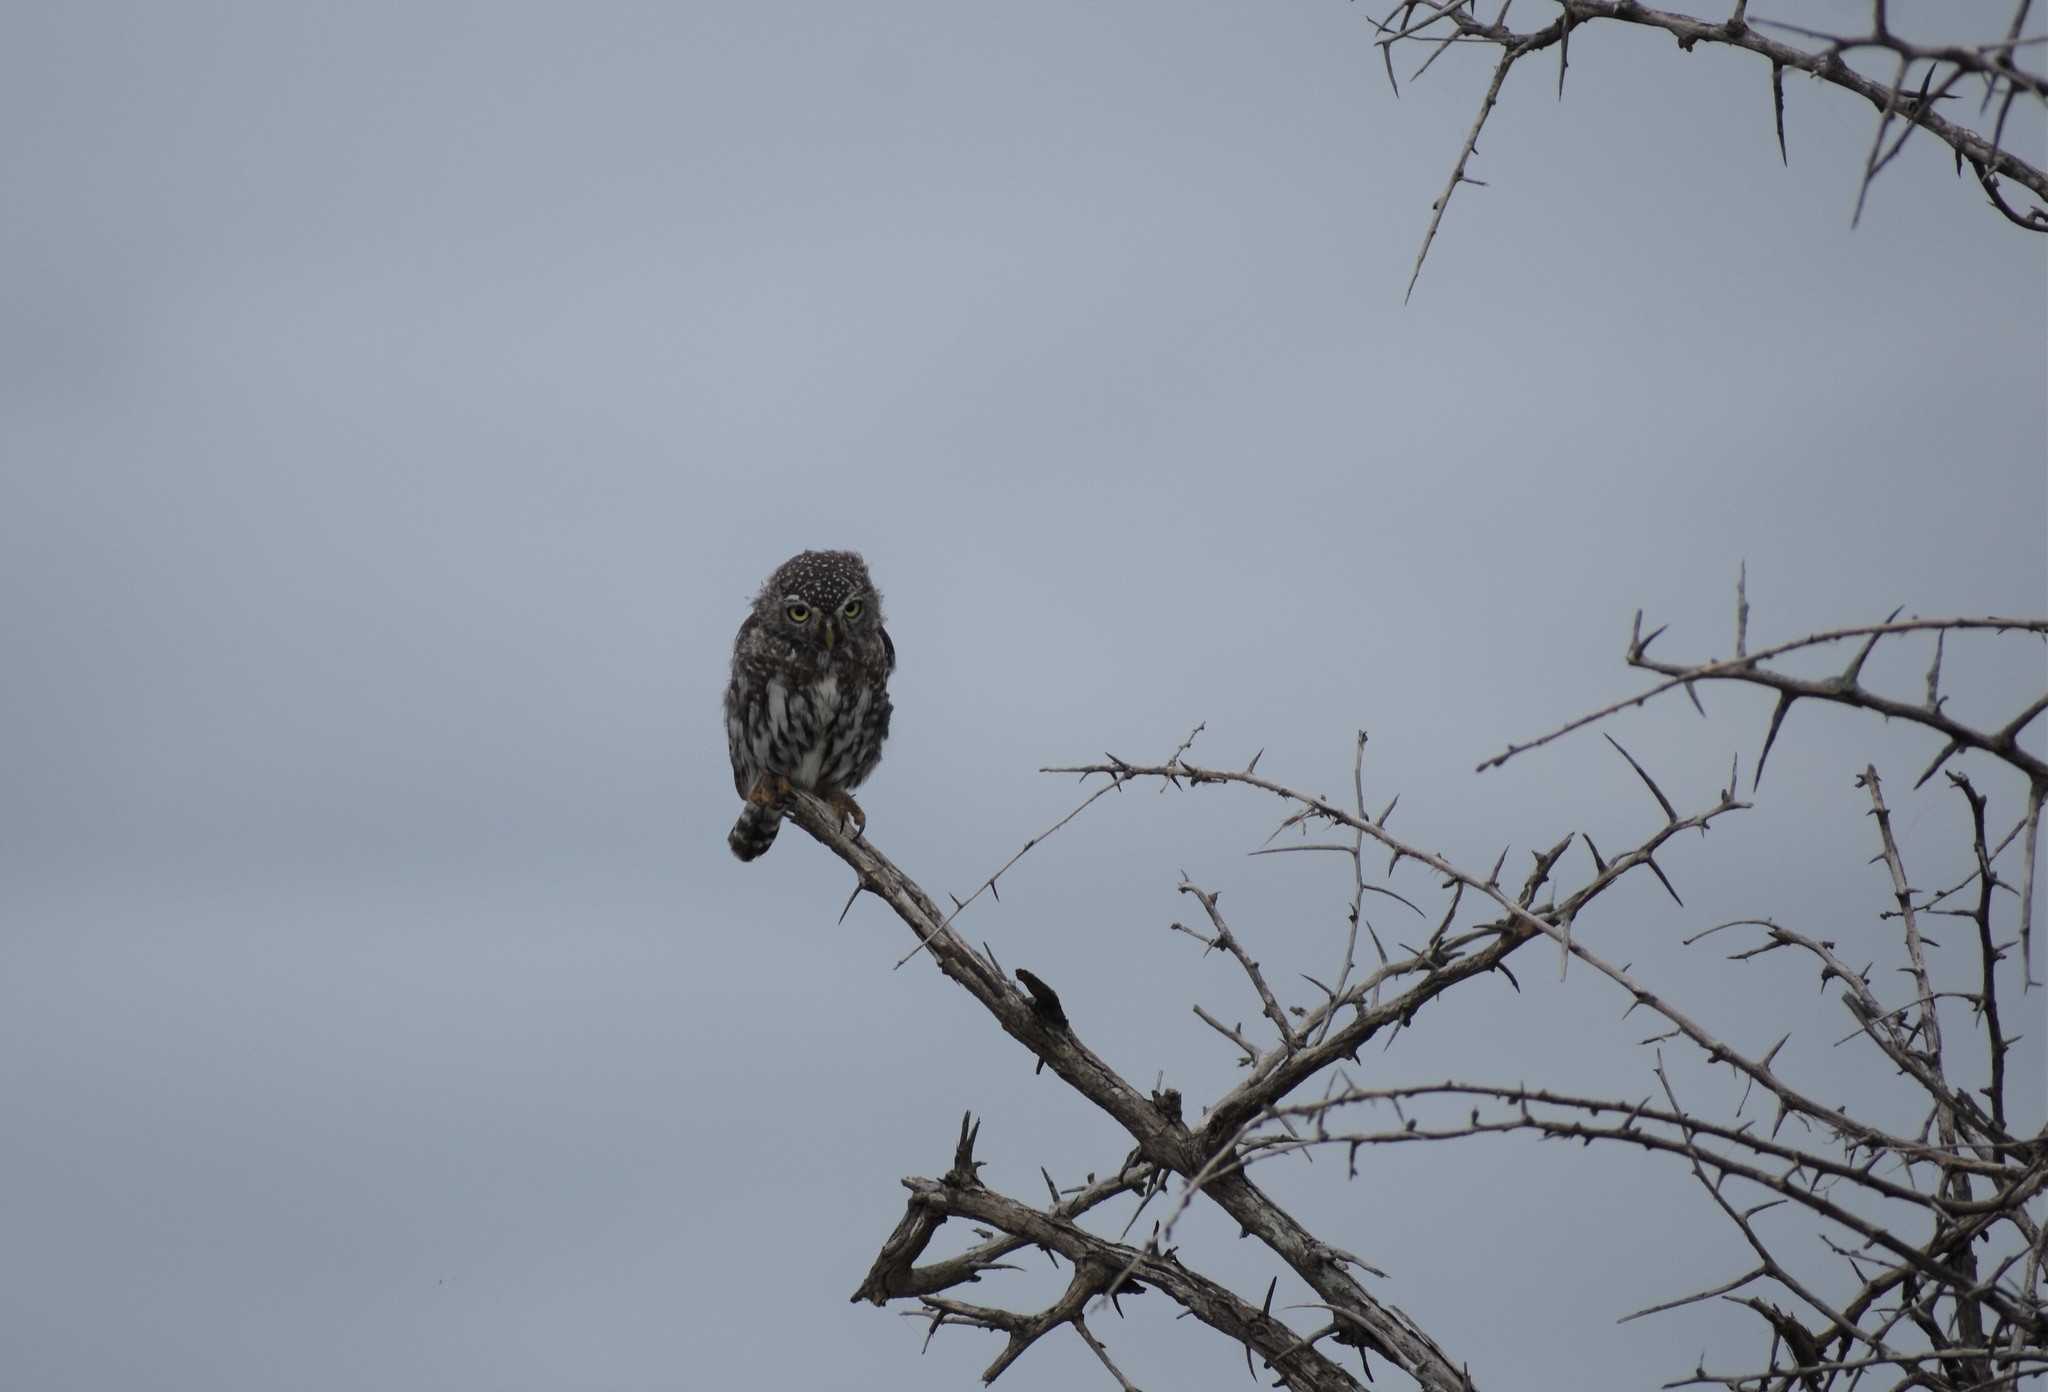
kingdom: Animalia
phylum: Chordata
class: Aves
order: Strigiformes
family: Strigidae
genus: Glaucidium
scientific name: Glaucidium perlatum
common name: Pearl-spotted owlet
